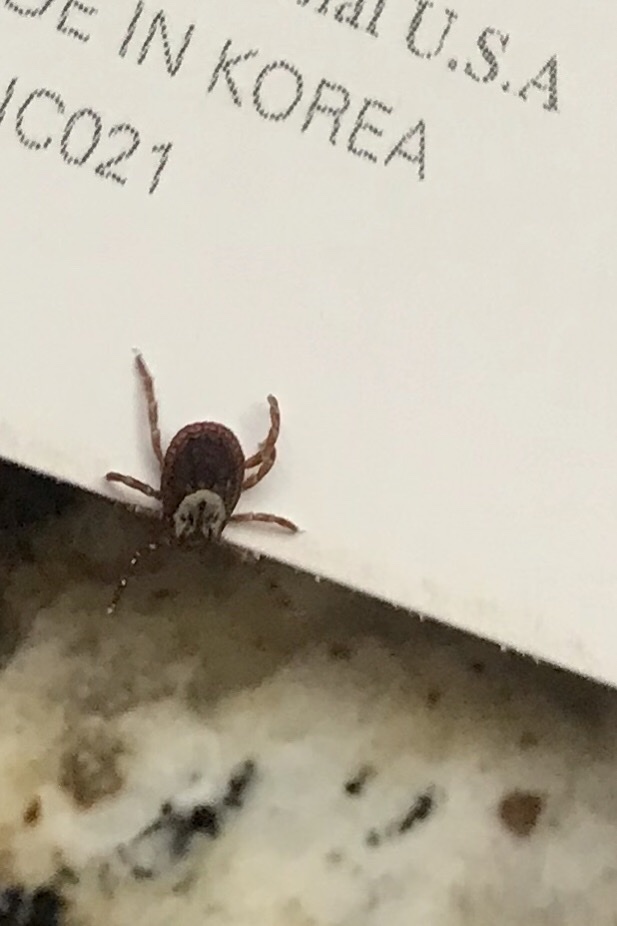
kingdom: Animalia
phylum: Arthropoda
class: Arachnida
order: Ixodida
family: Ixodidae
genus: Dermacentor
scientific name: Dermacentor variabilis
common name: American dog tick
